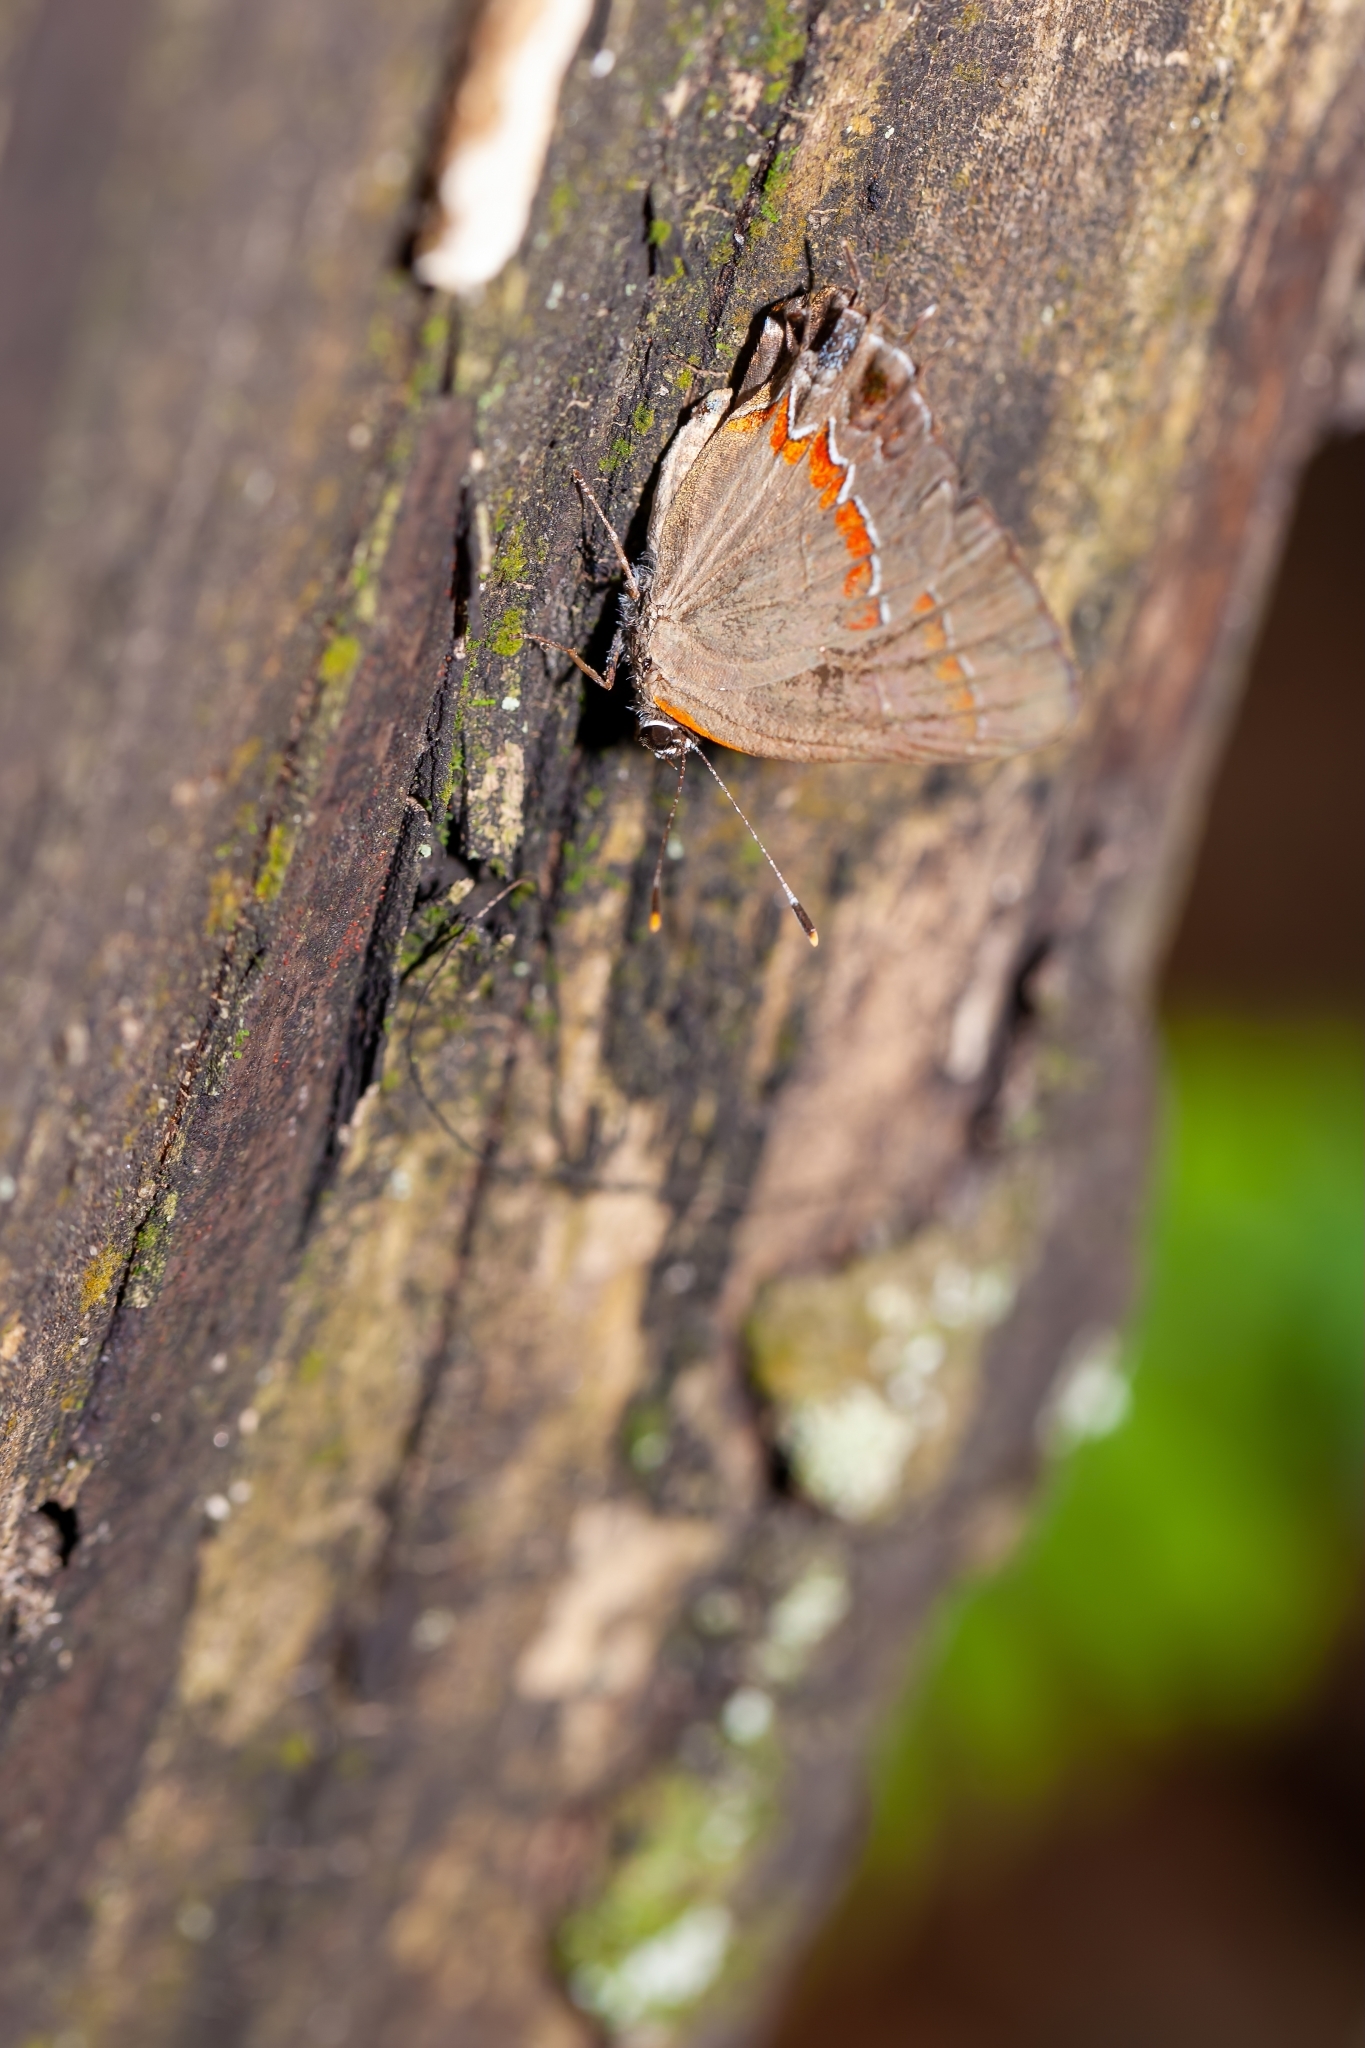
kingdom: Animalia
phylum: Arthropoda
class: Insecta
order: Lepidoptera
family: Lycaenidae
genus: Calycopis
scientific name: Calycopis cecrops
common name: Red-banded hairstreak
